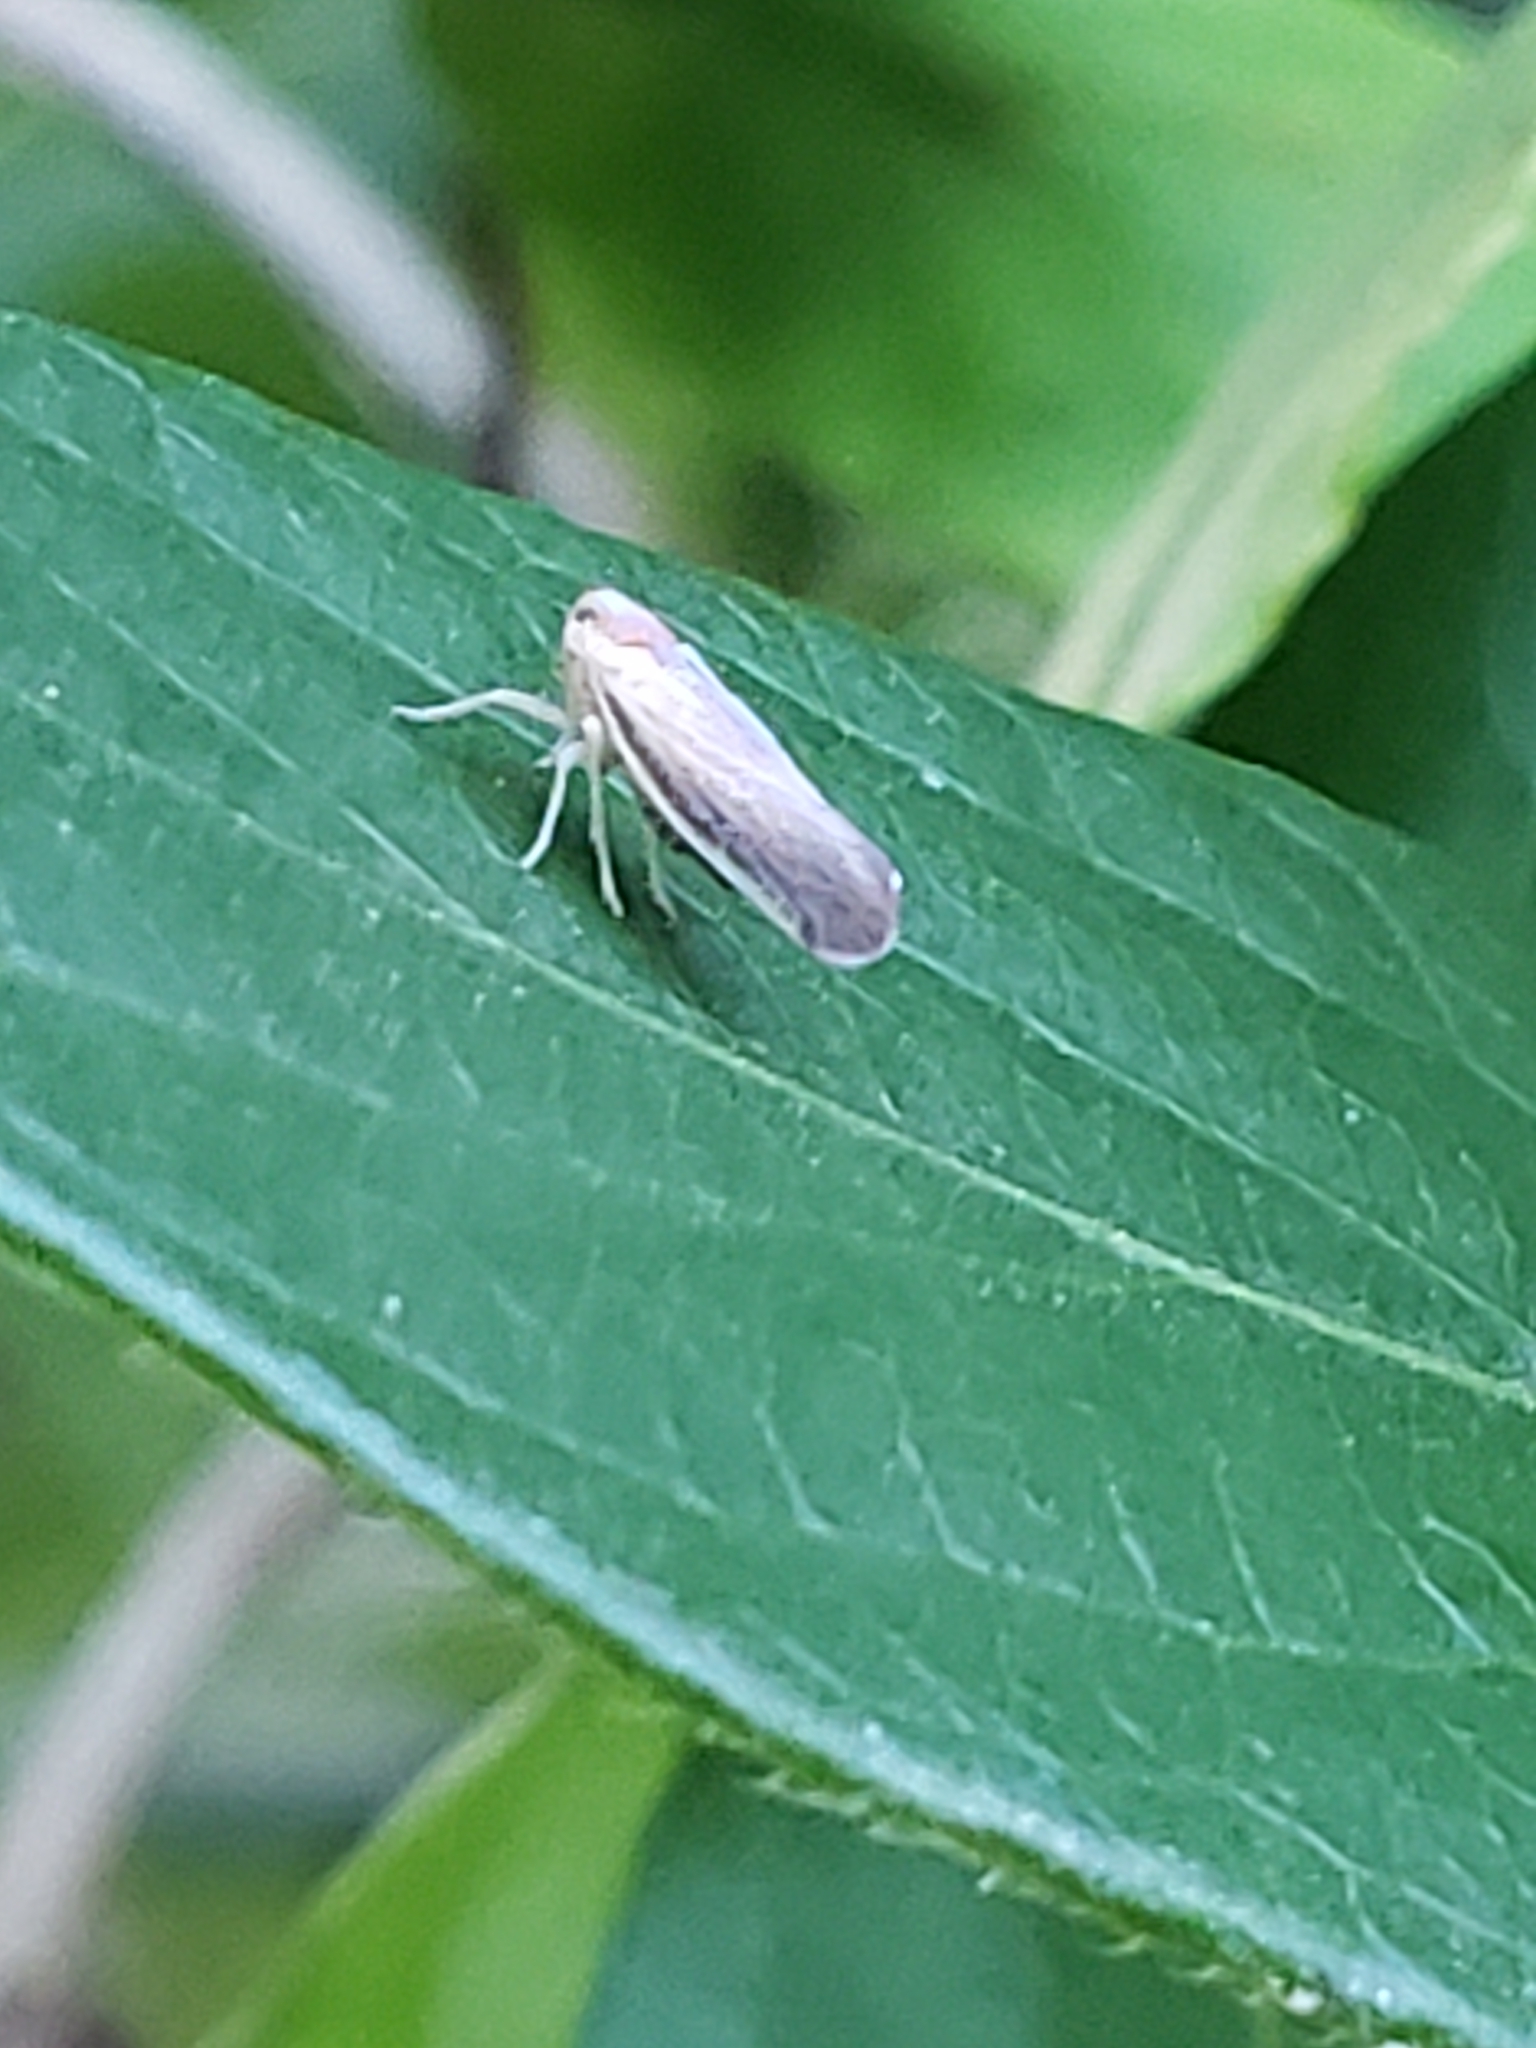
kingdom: Animalia
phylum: Arthropoda
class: Insecta
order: Hemiptera
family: Derbidae
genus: Omolicna
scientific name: Omolicna uhleri
